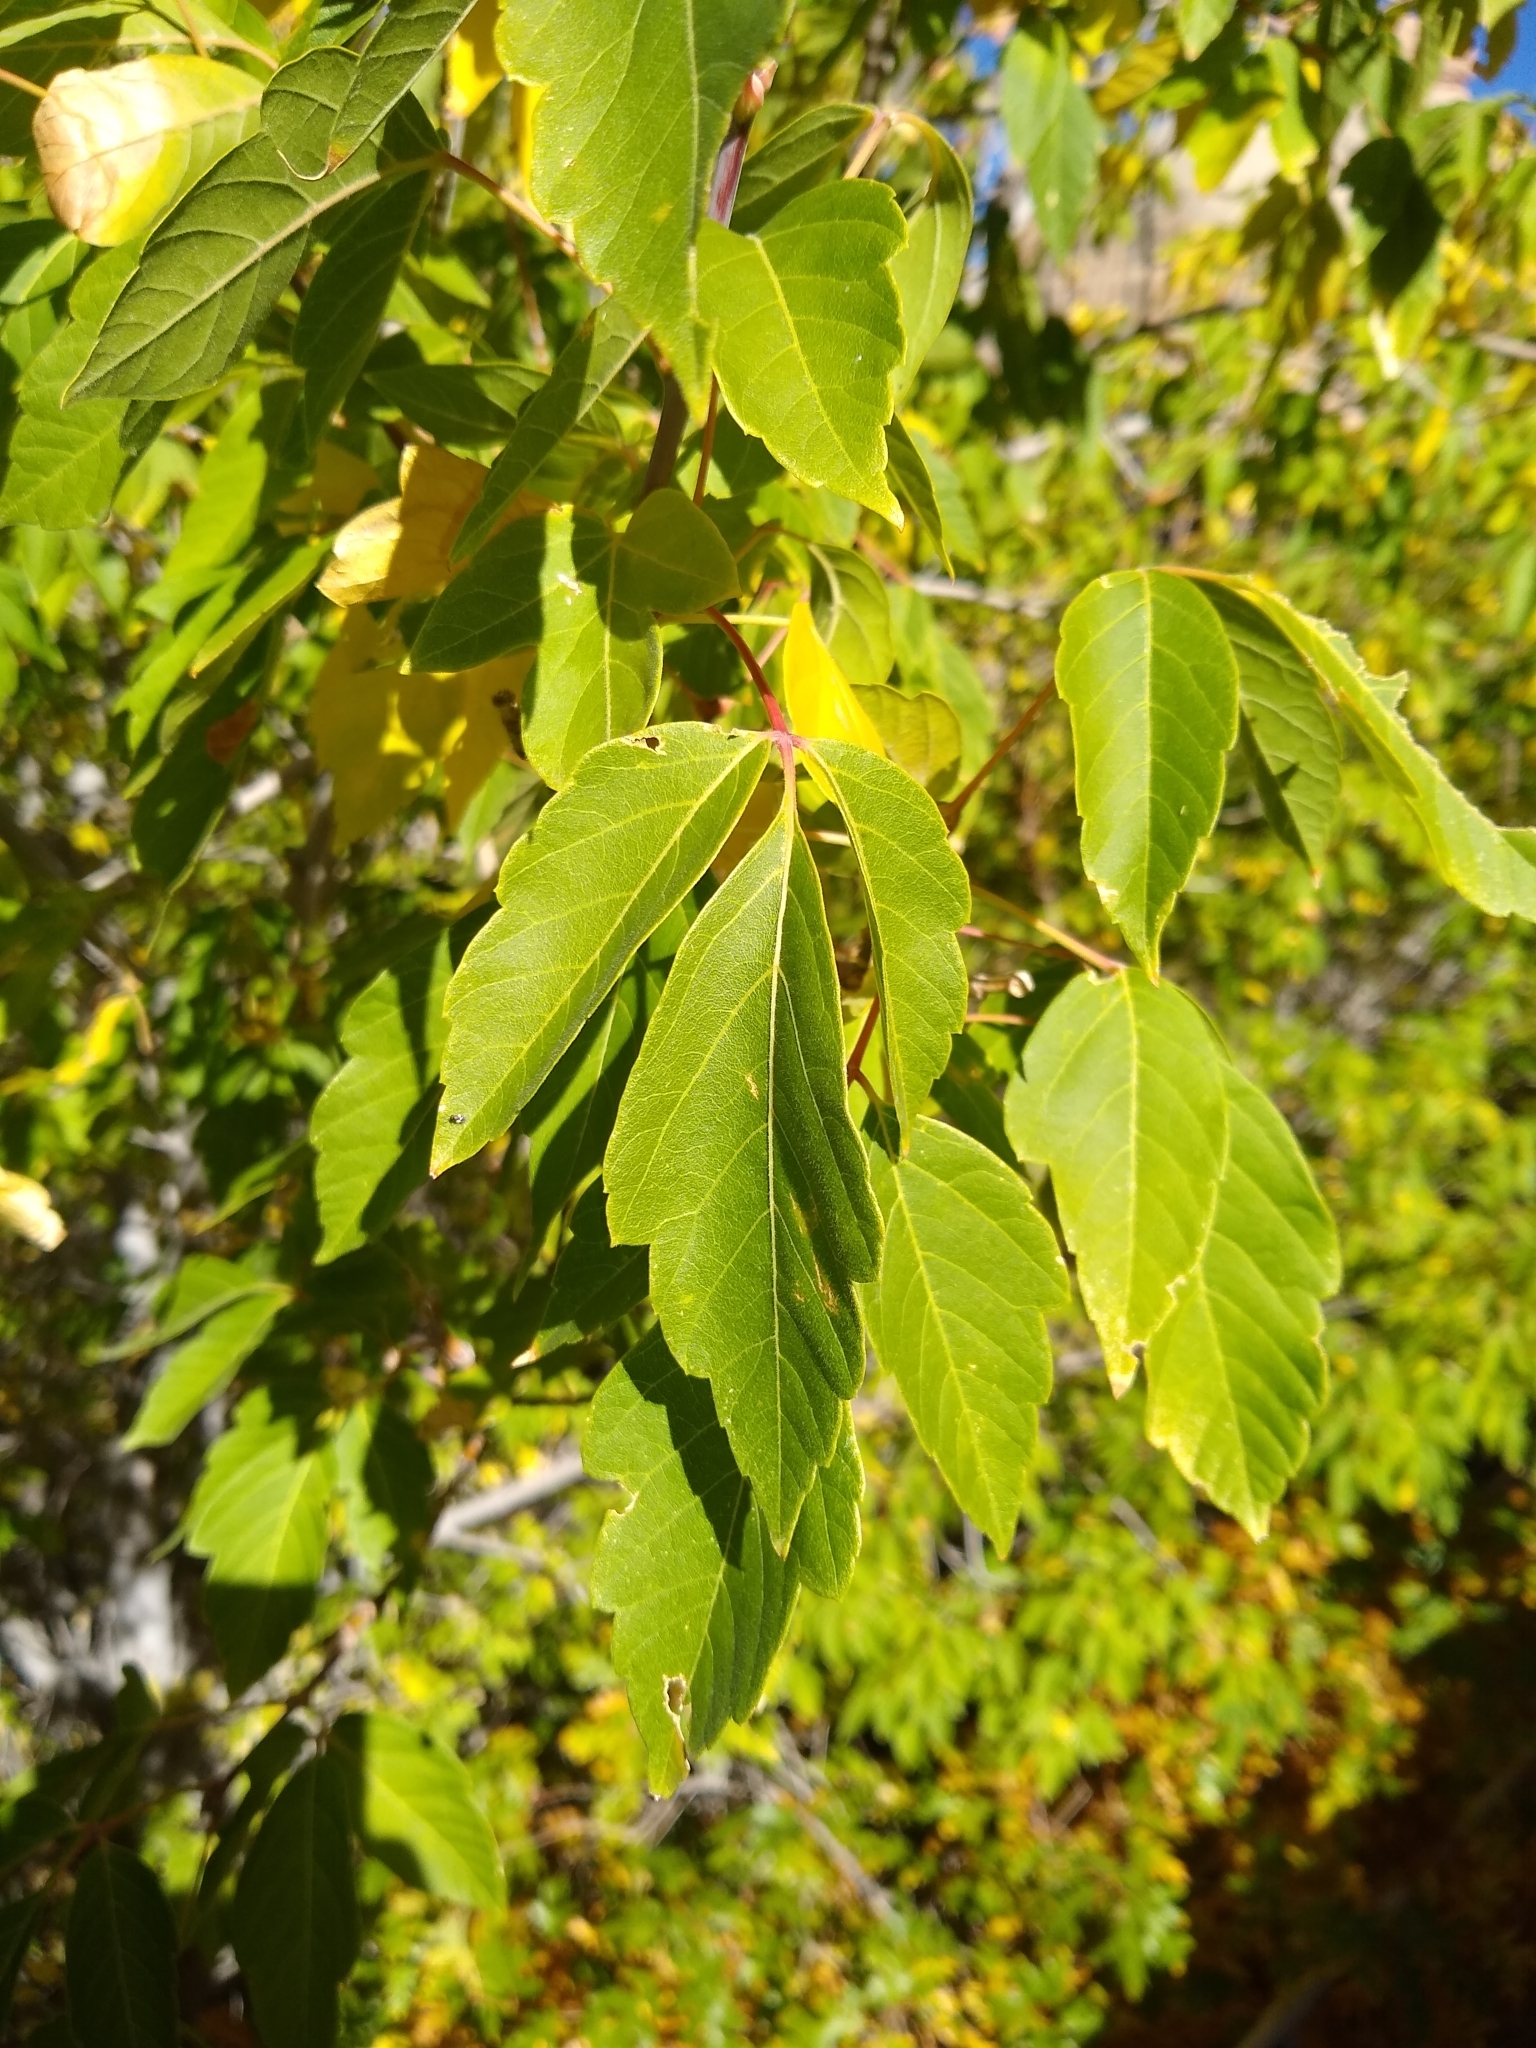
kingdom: Plantae
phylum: Tracheophyta
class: Magnoliopsida
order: Sapindales
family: Sapindaceae
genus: Acer
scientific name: Acer negundo
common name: Ashleaf maple
